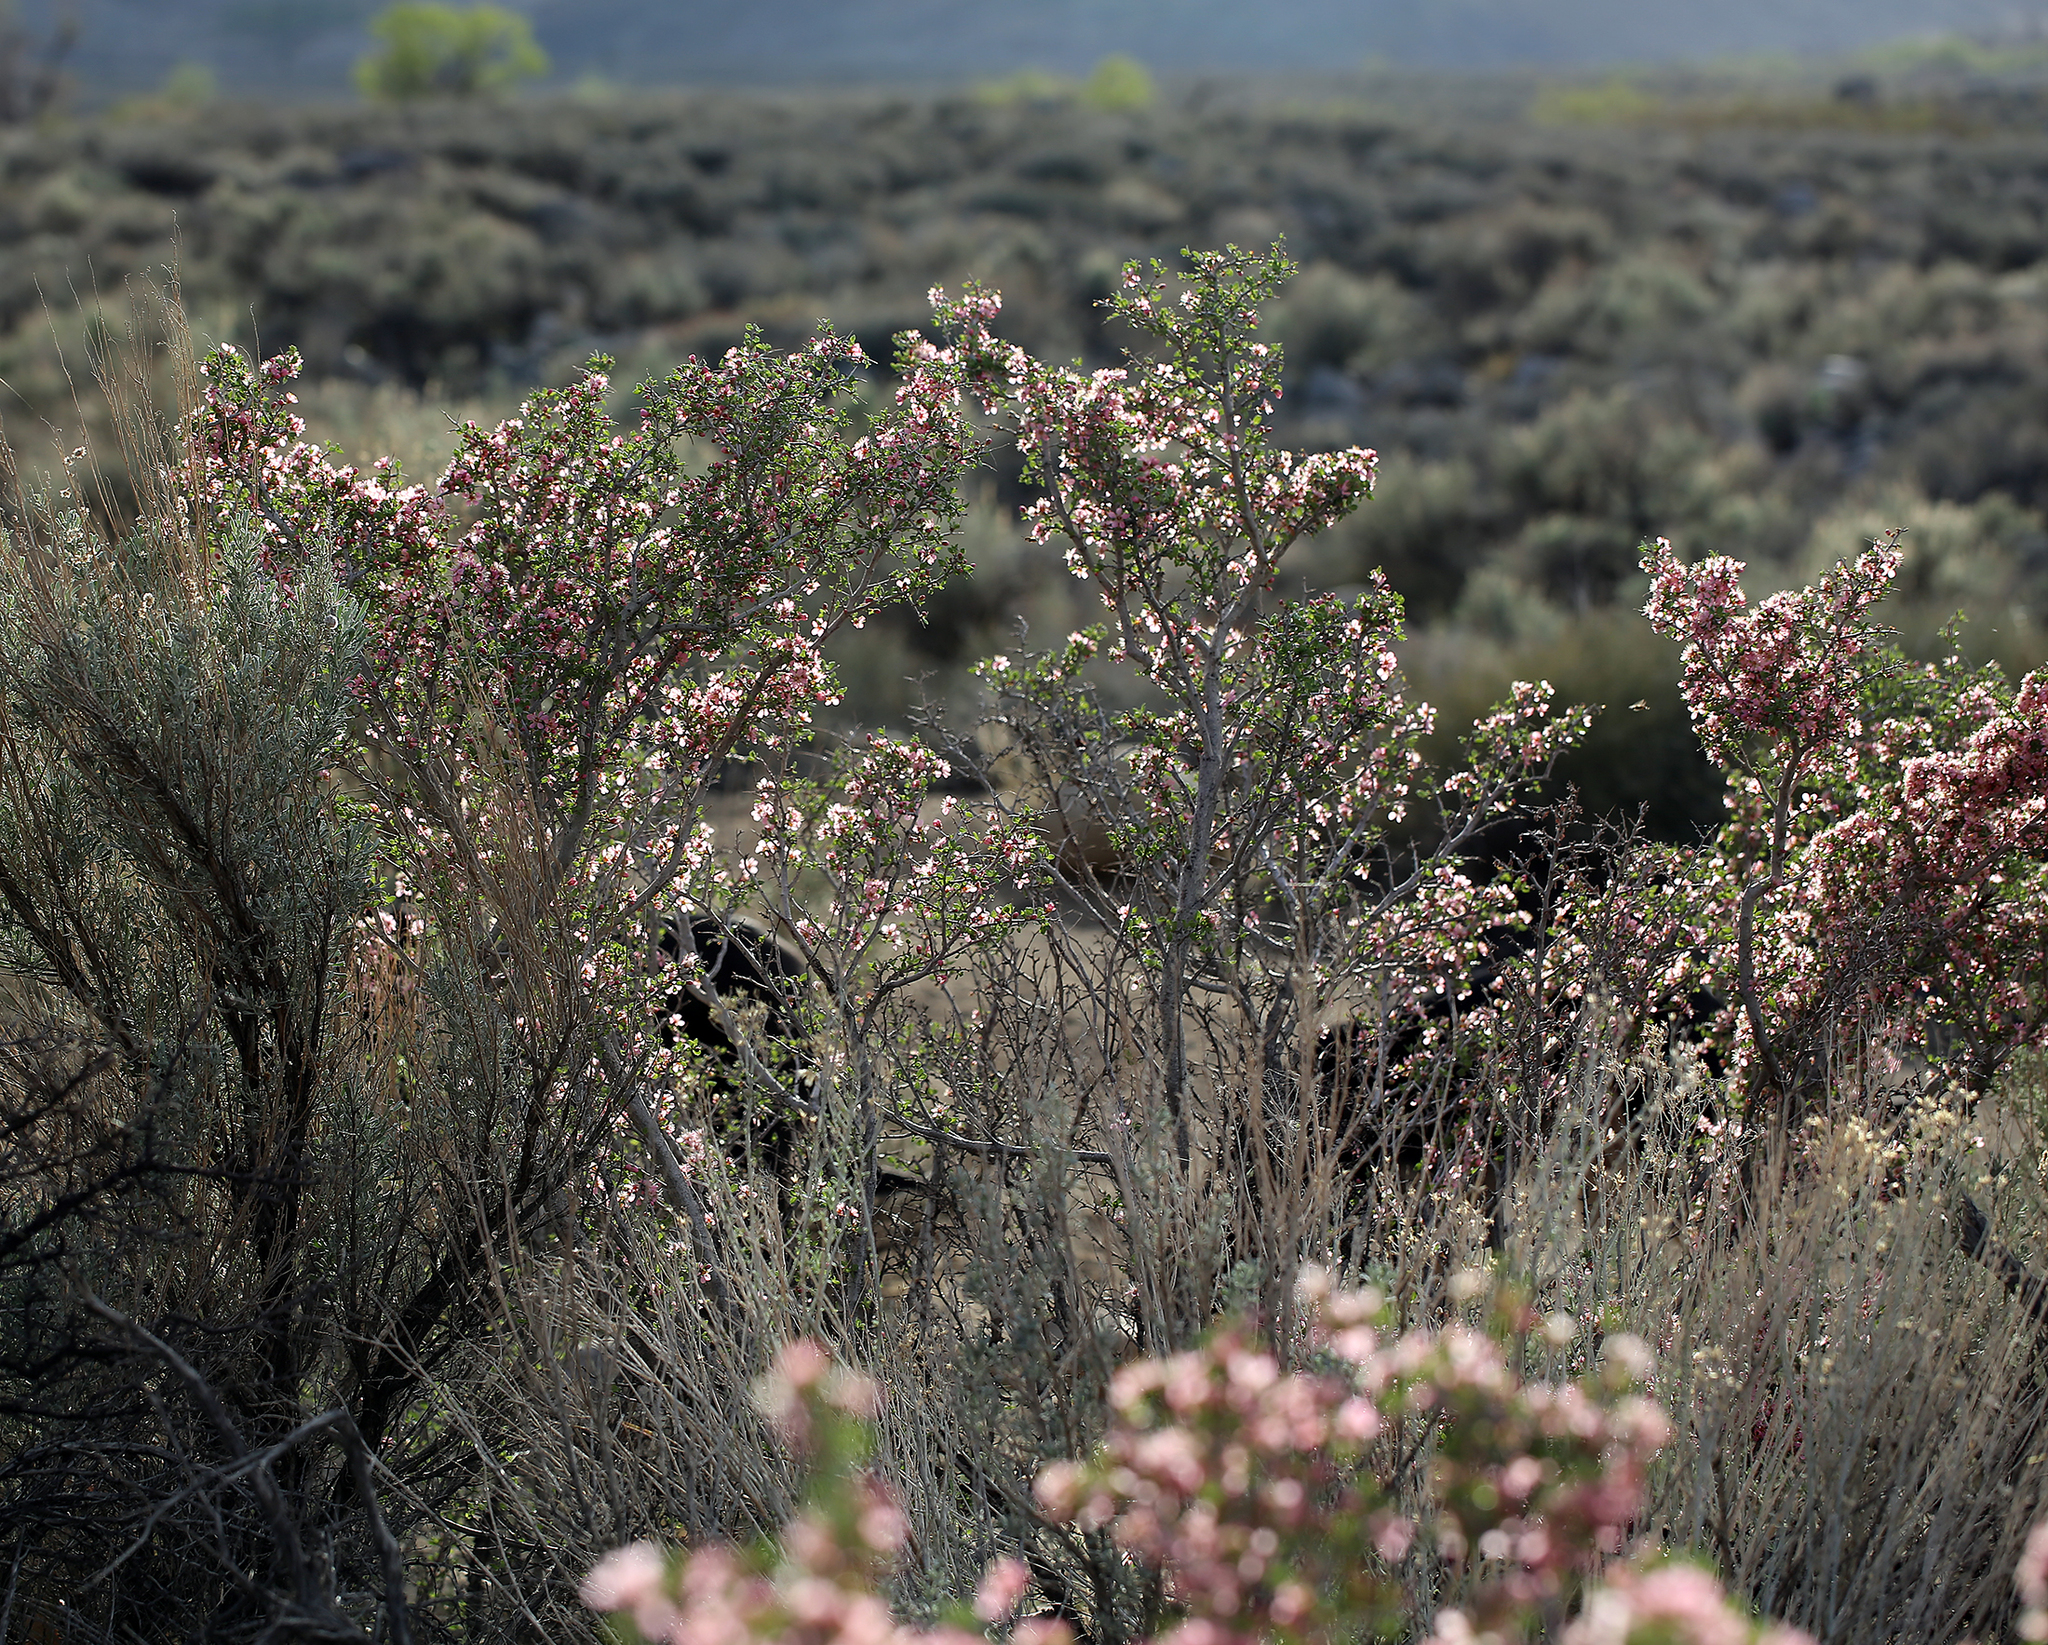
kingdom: Plantae
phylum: Tracheophyta
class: Magnoliopsida
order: Rosales
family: Rosaceae
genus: Prunus
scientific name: Prunus andersonii
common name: Desert peach
